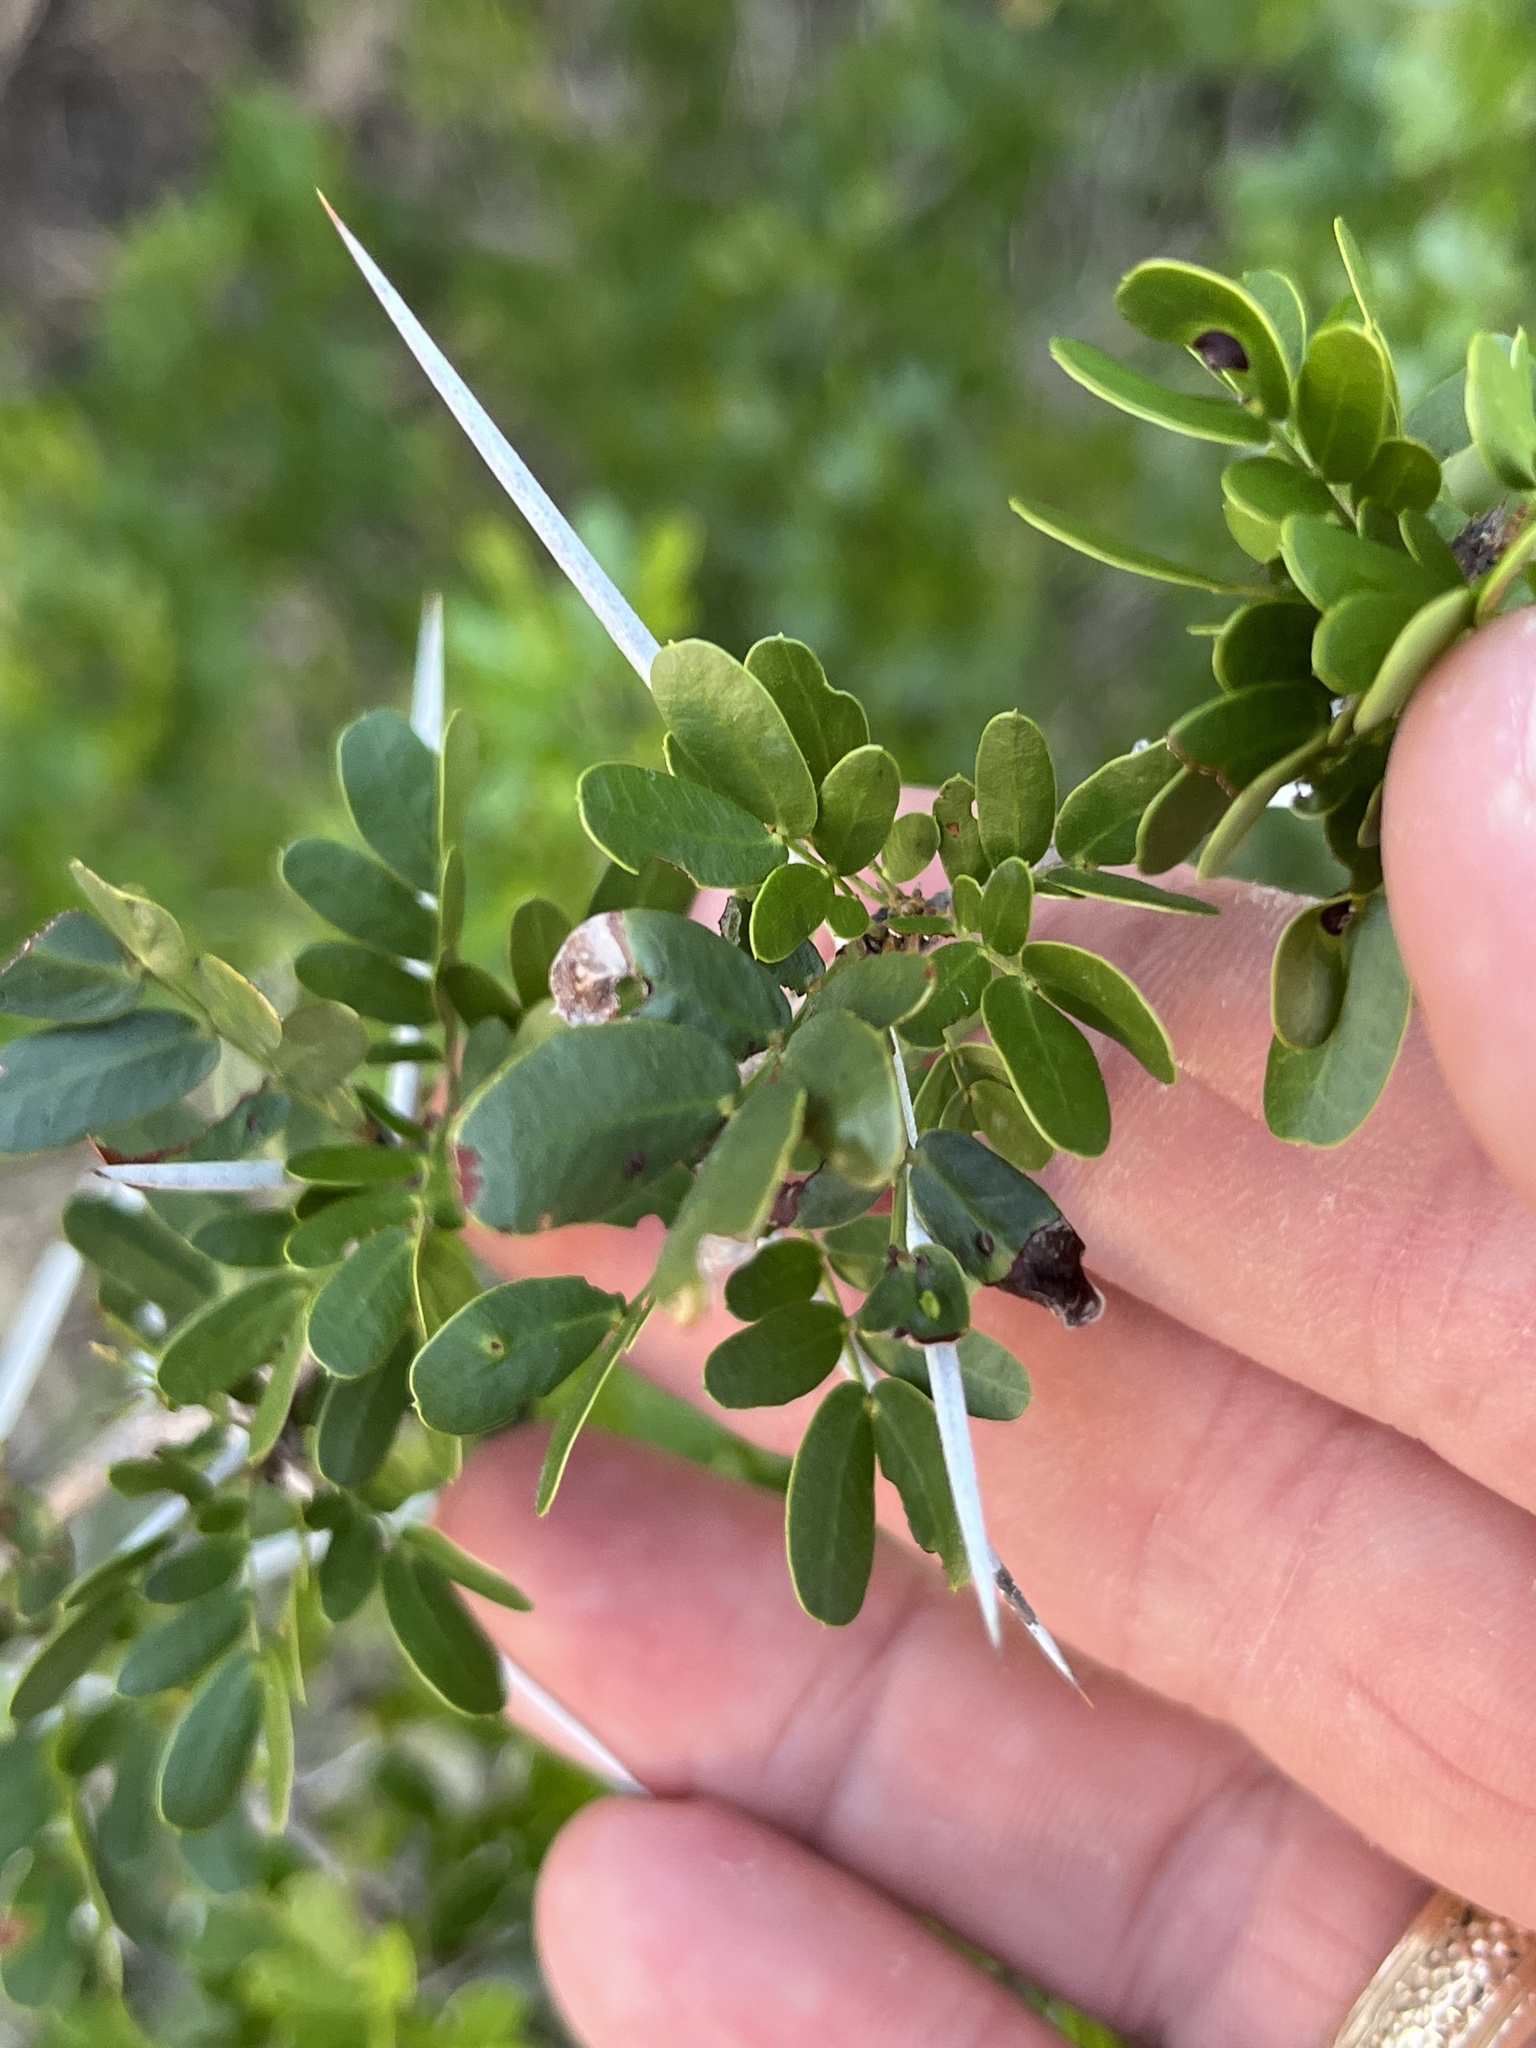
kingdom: Plantae
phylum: Tracheophyta
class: Magnoliopsida
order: Fabales
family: Fabaceae
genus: Vachellia
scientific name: Vachellia rigidula
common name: Blackbrush
